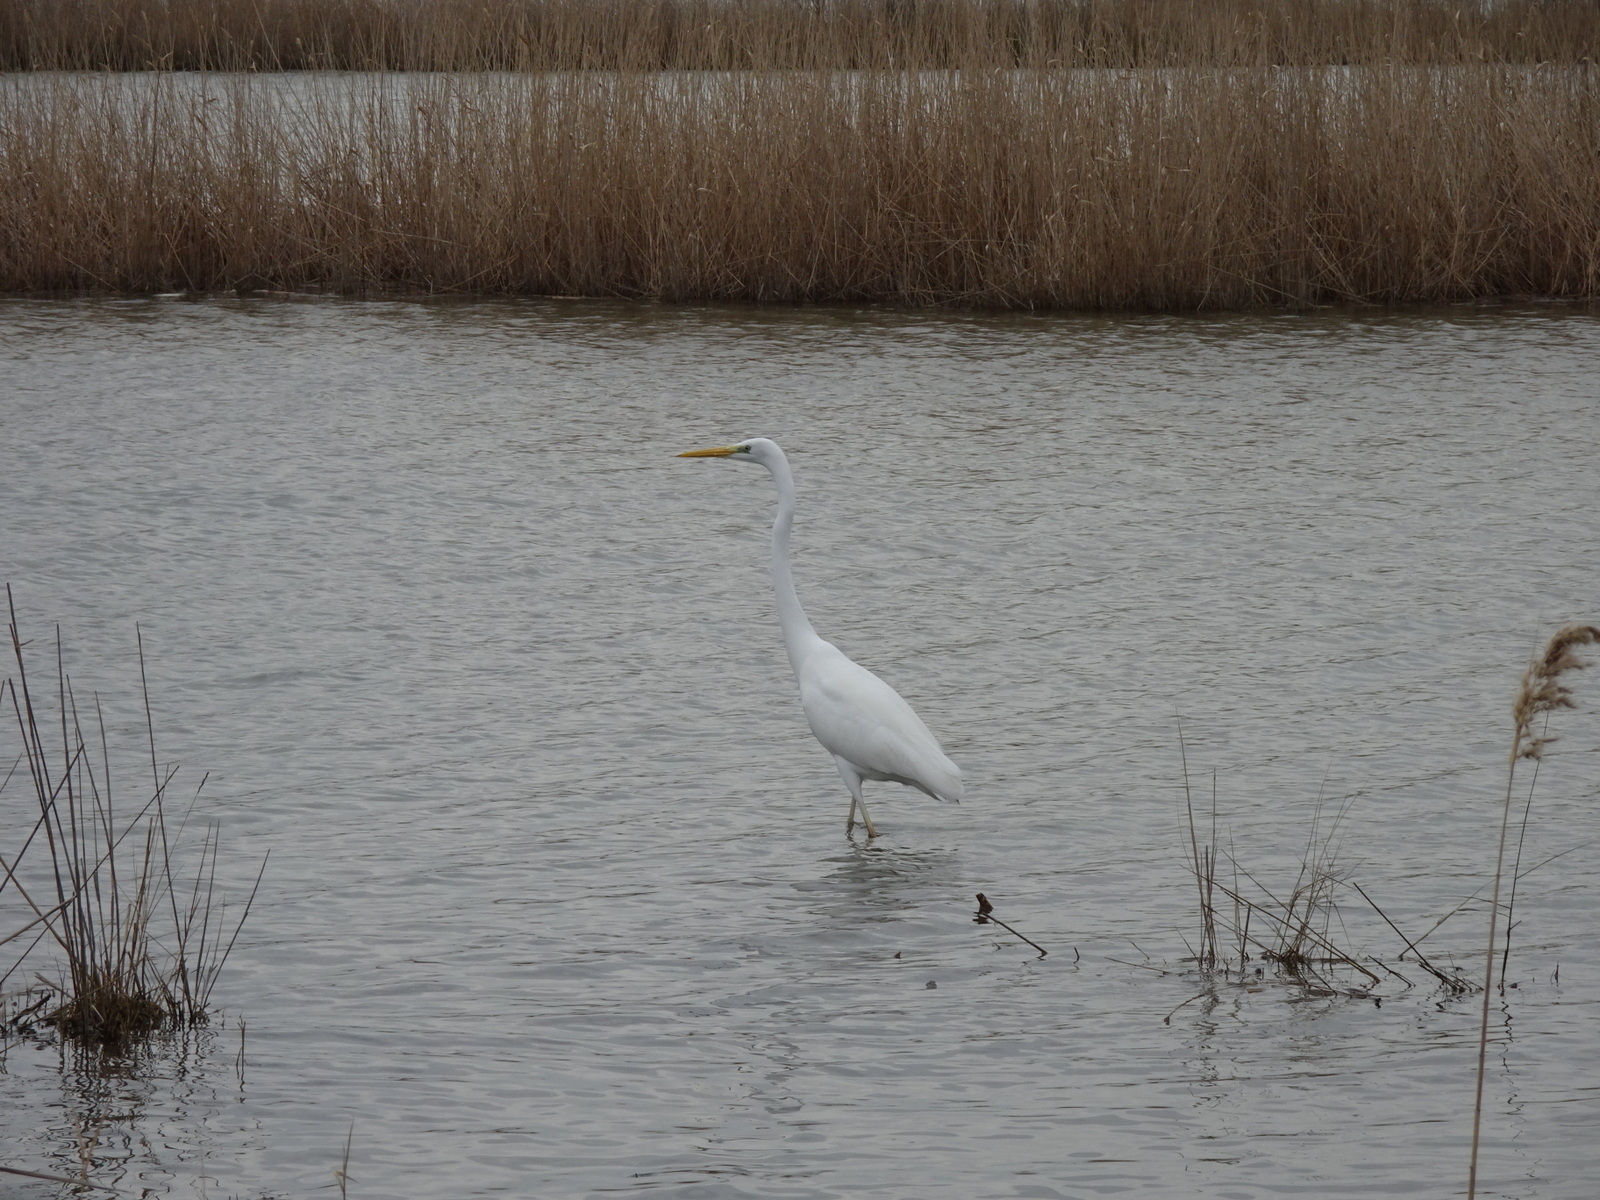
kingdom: Animalia
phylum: Chordata
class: Aves
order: Pelecaniformes
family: Ardeidae
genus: Ardea
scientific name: Ardea alba
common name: Great egret
